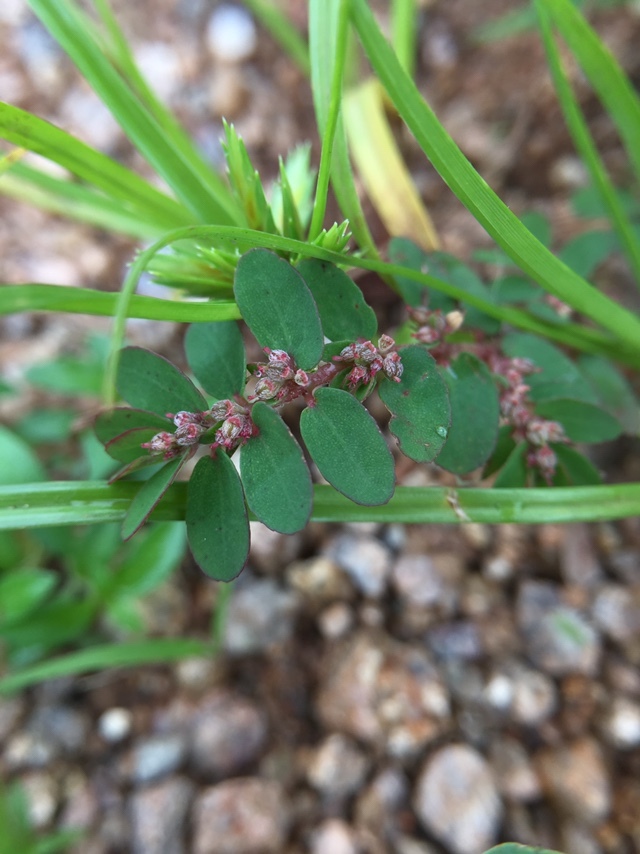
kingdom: Plantae
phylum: Tracheophyta
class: Magnoliopsida
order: Malpighiales
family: Euphorbiaceae
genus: Euphorbia
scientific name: Euphorbia thymifolia
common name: Gulf sandmat
